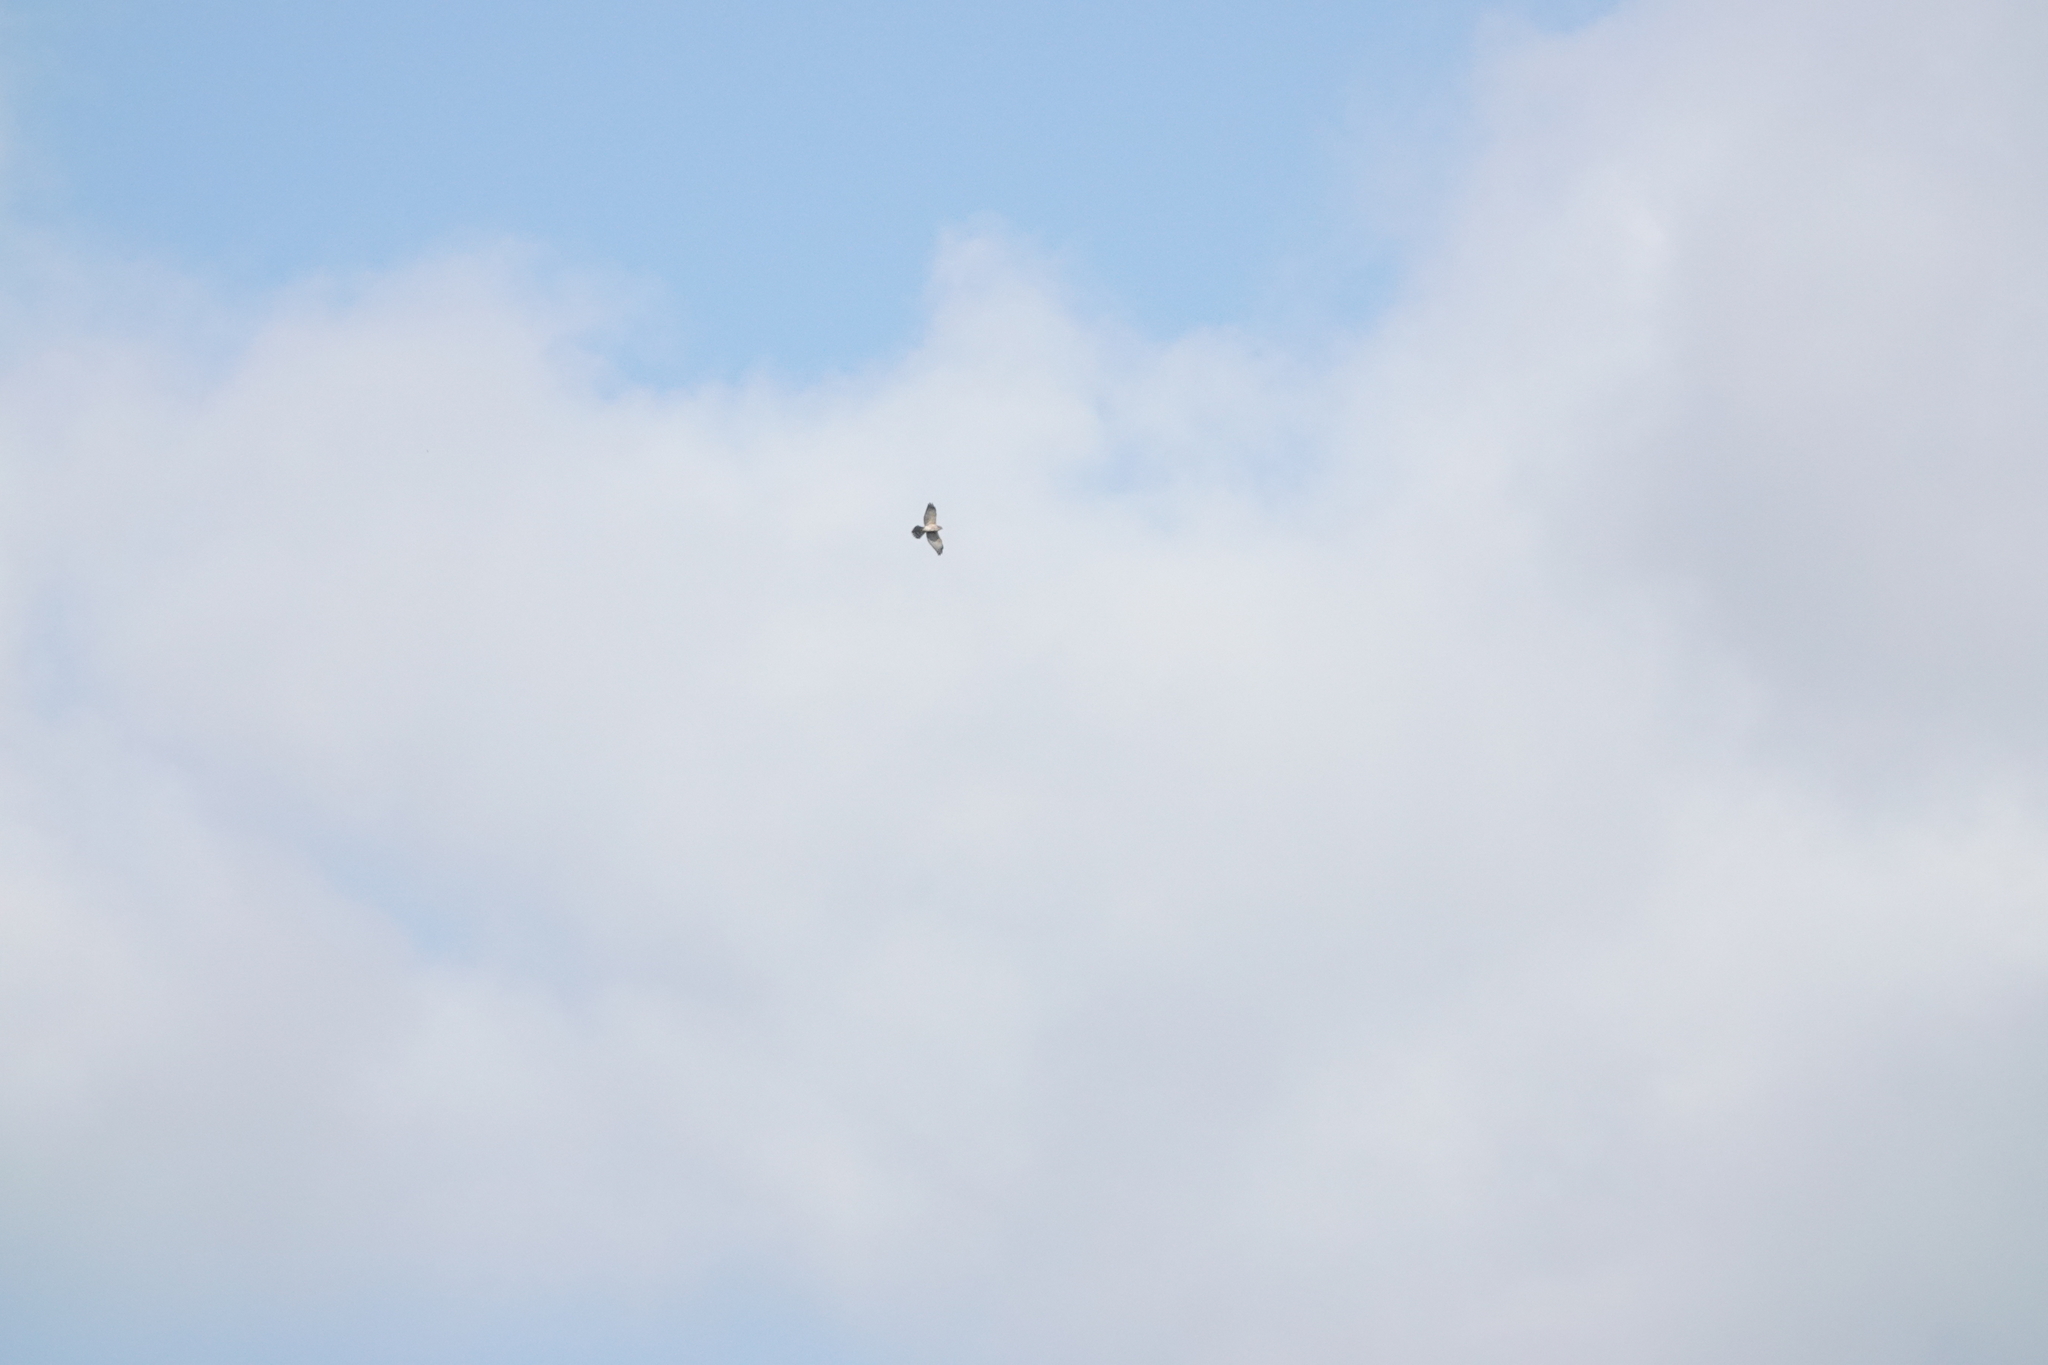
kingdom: Animalia
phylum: Chordata
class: Aves
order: Accipitriformes
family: Accipitridae
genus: Accipiter
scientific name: Accipiter soloensis
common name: Chinese sparrowhawk
